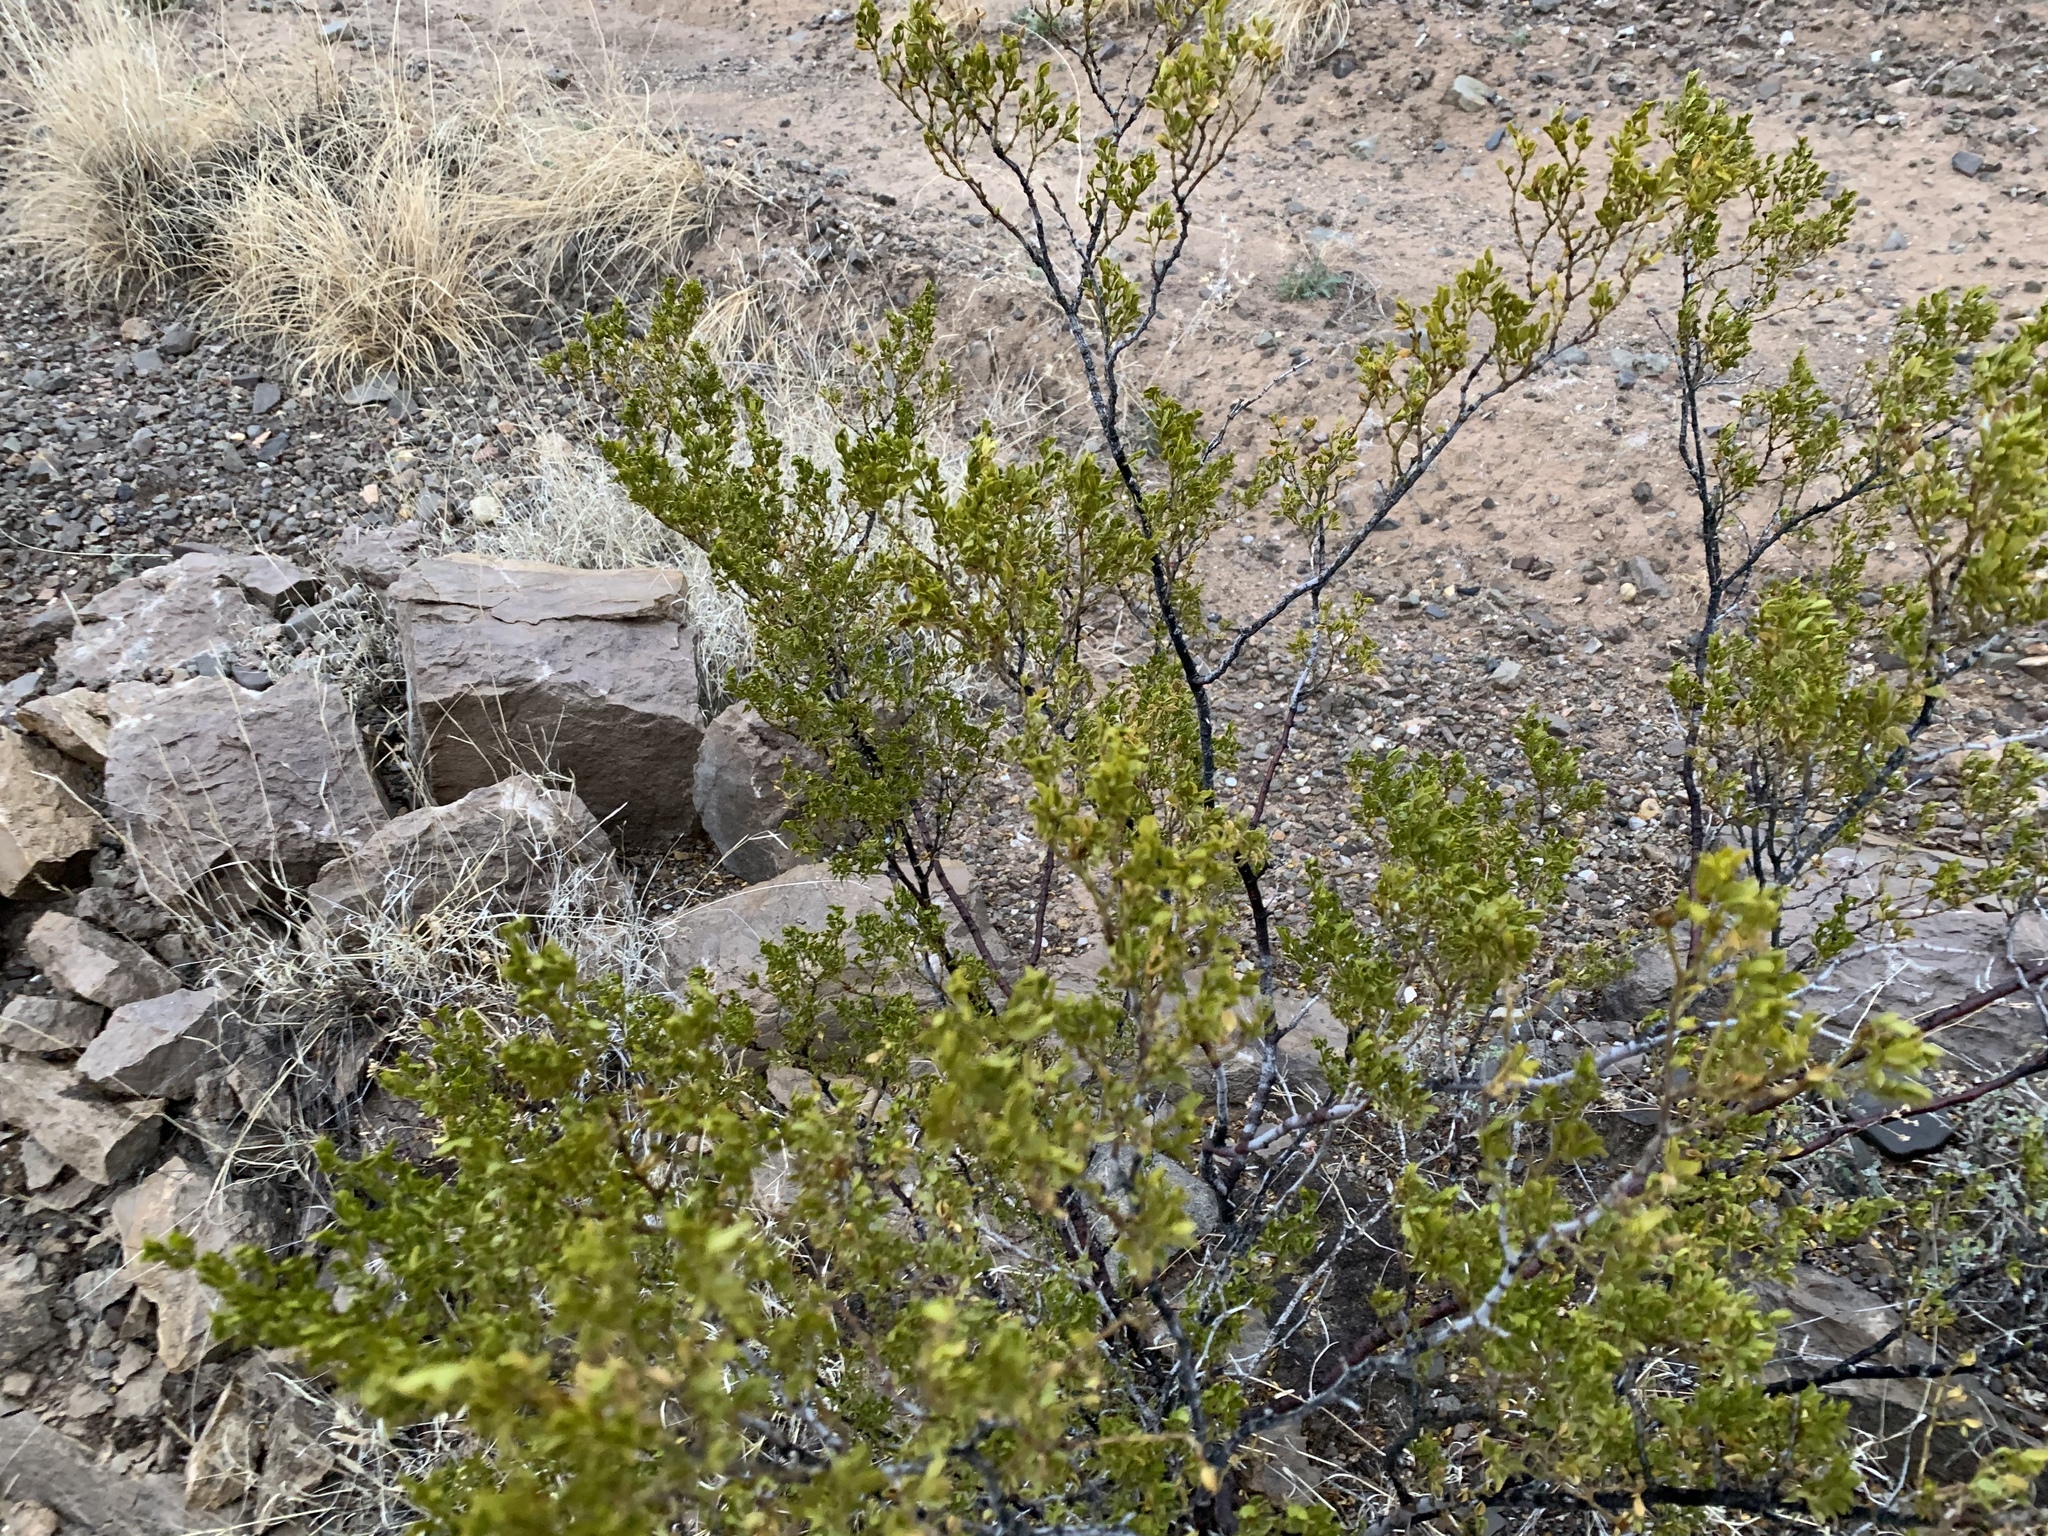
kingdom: Plantae
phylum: Tracheophyta
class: Magnoliopsida
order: Zygophyllales
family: Zygophyllaceae
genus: Larrea
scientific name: Larrea tridentata
